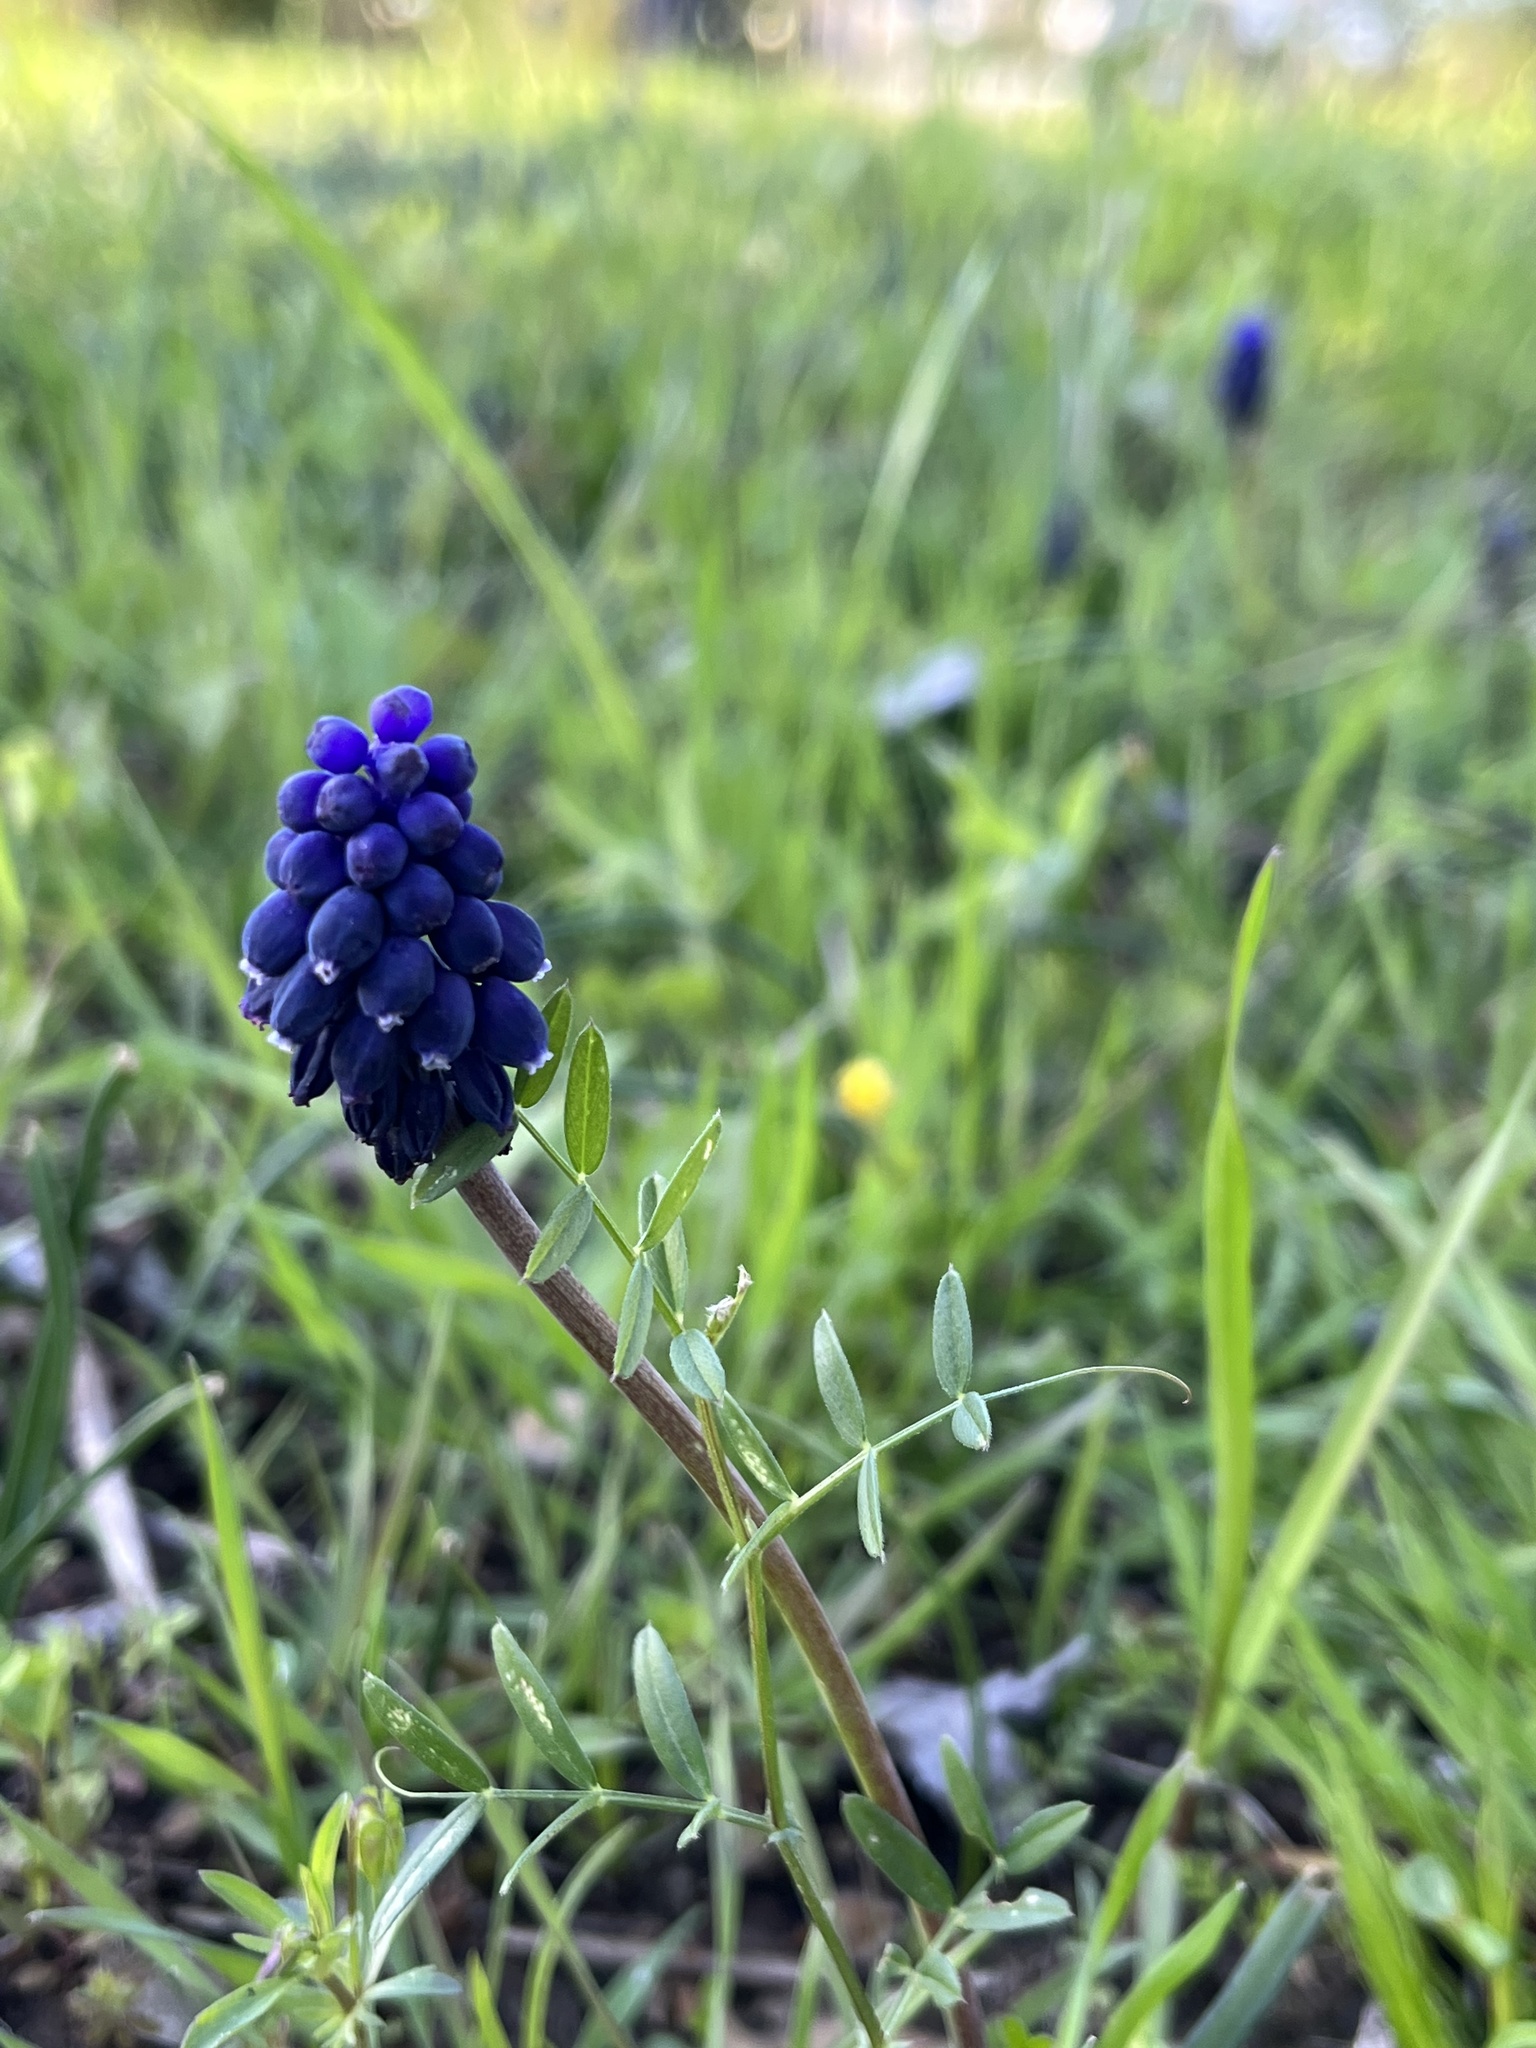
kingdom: Plantae
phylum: Tracheophyta
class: Liliopsida
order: Asparagales
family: Asparagaceae
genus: Muscari
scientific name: Muscari botryoides
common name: Compact grape-hyacinth
